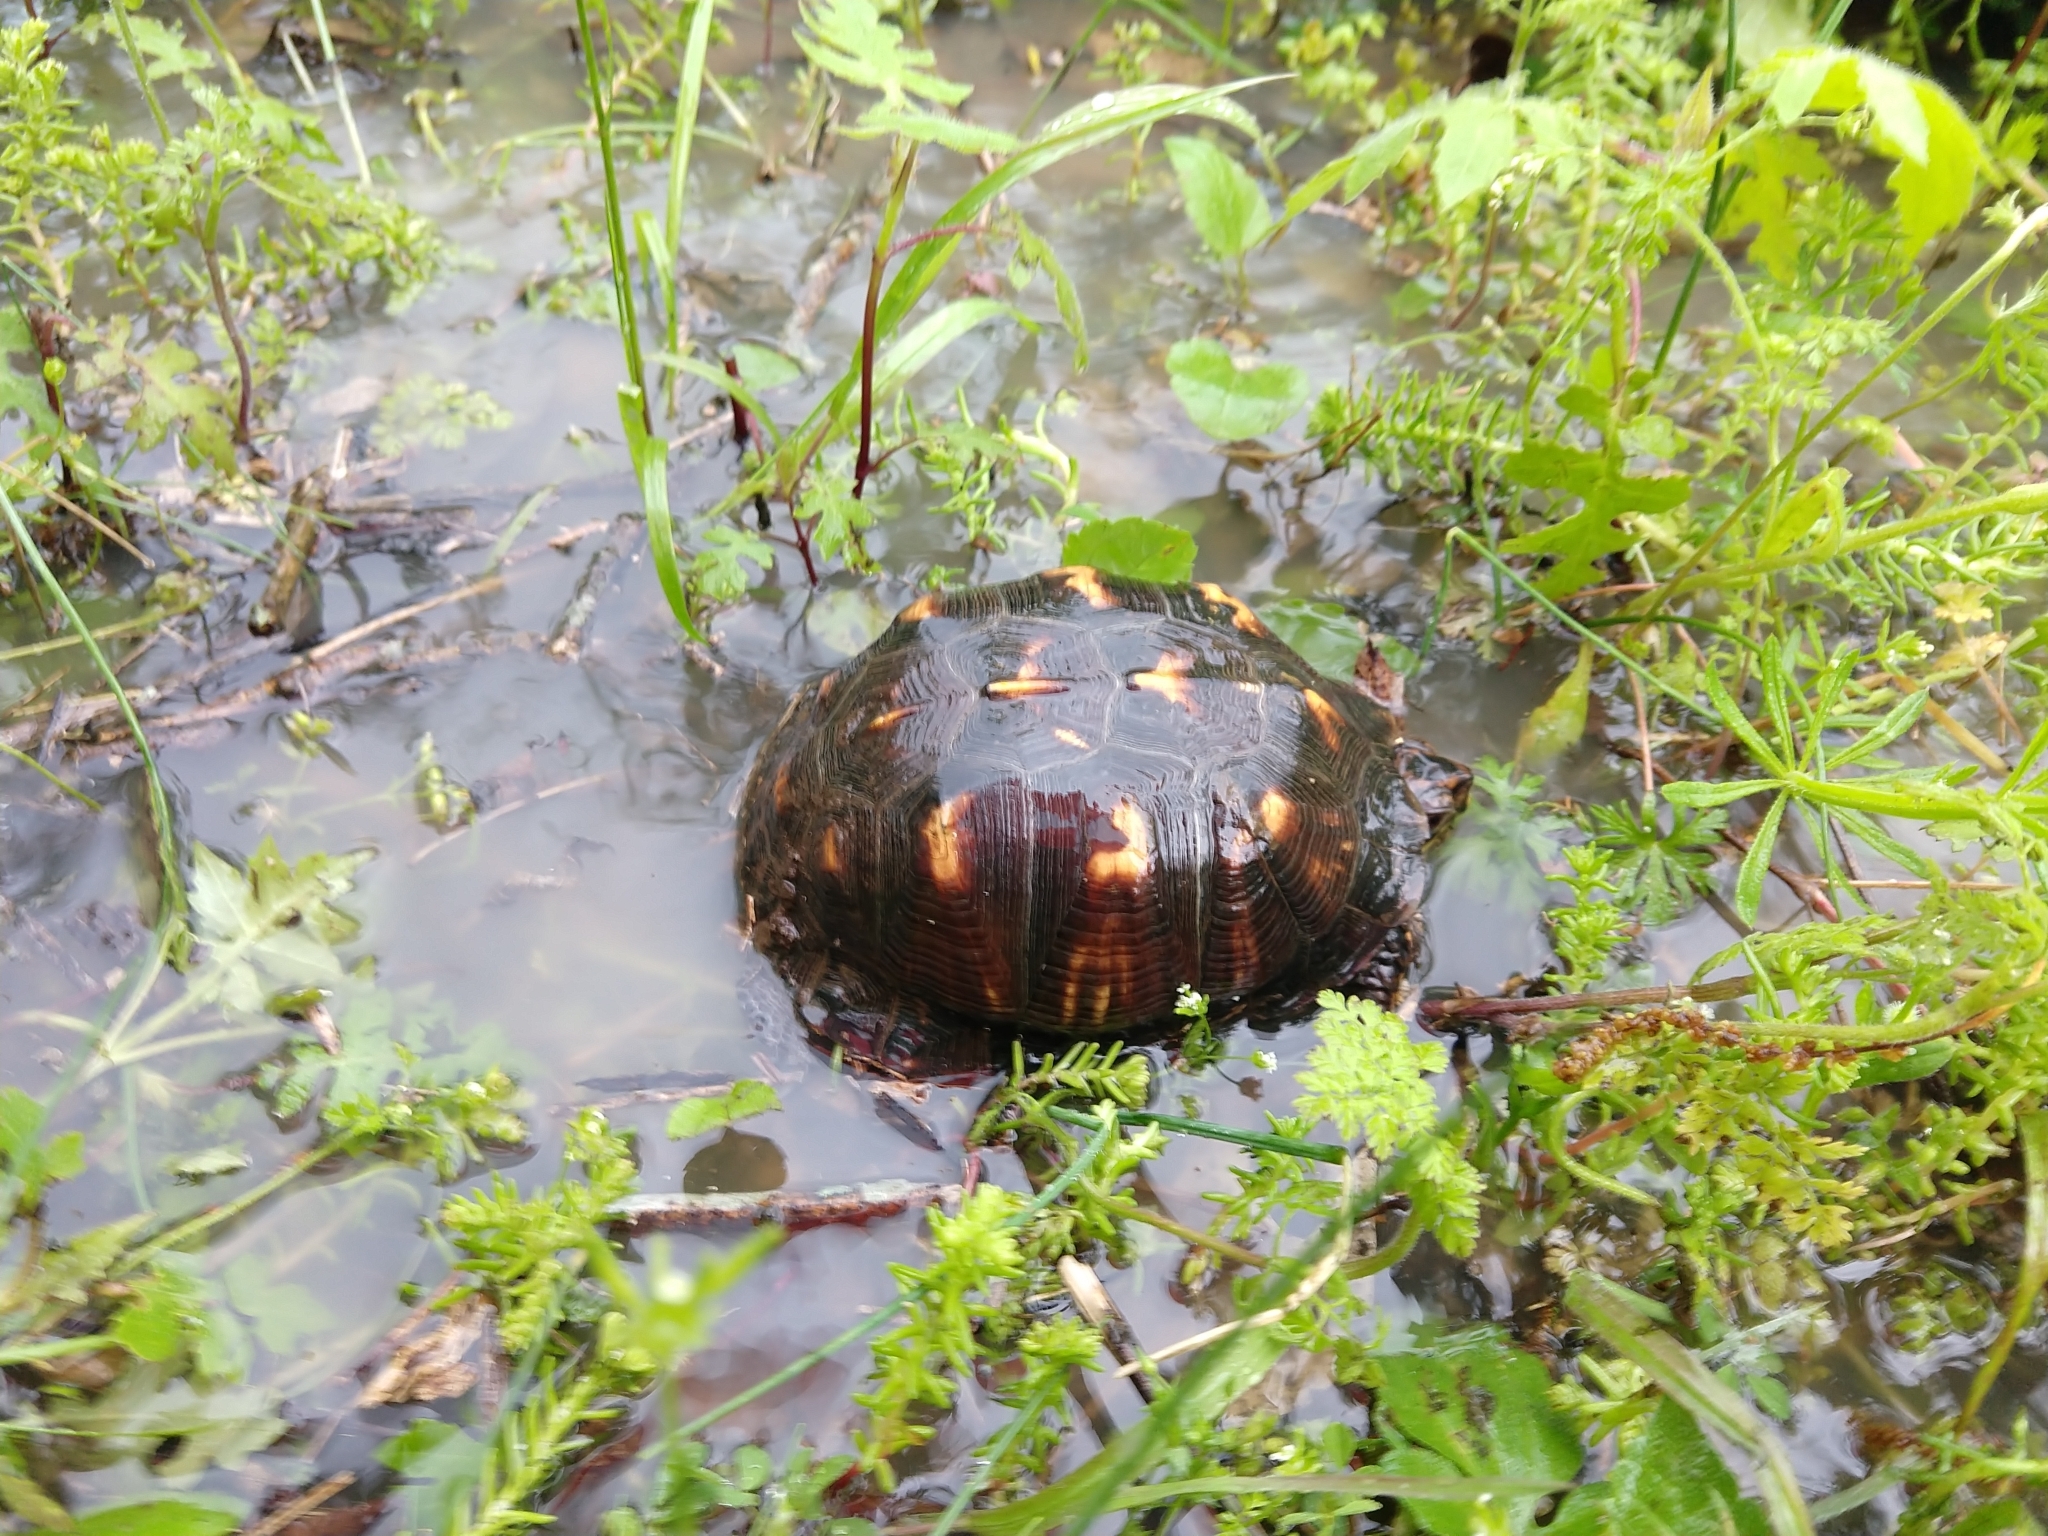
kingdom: Animalia
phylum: Chordata
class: Testudines
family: Emydidae
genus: Terrapene
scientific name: Terrapene carolina
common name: Common box turtle
